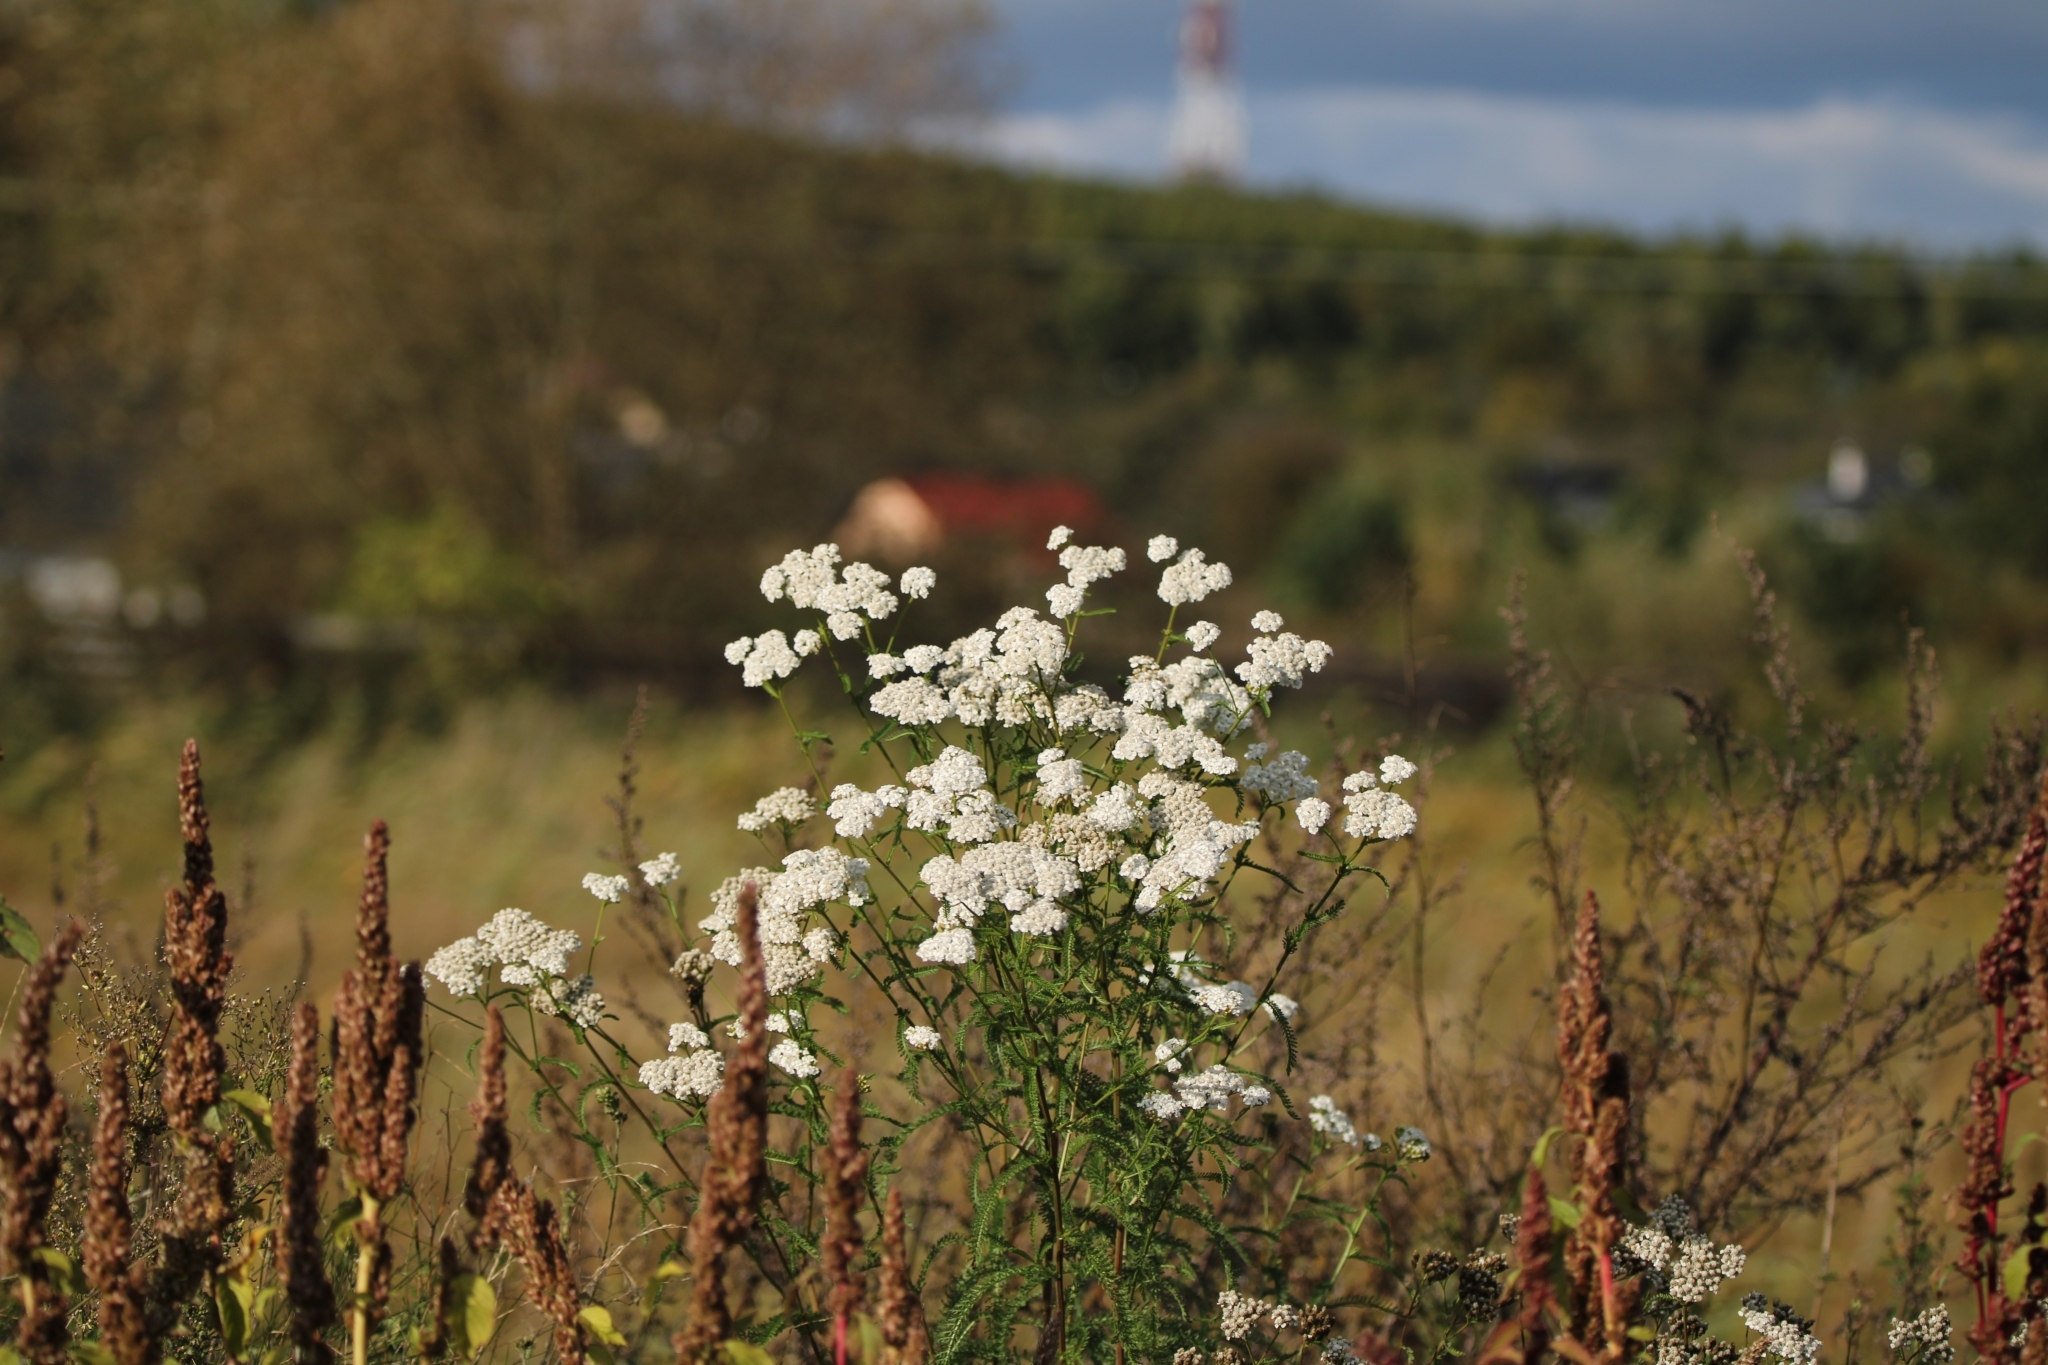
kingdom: Plantae
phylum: Tracheophyta
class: Magnoliopsida
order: Asterales
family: Asteraceae
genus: Achillea
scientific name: Achillea millefolium
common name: Yarrow
